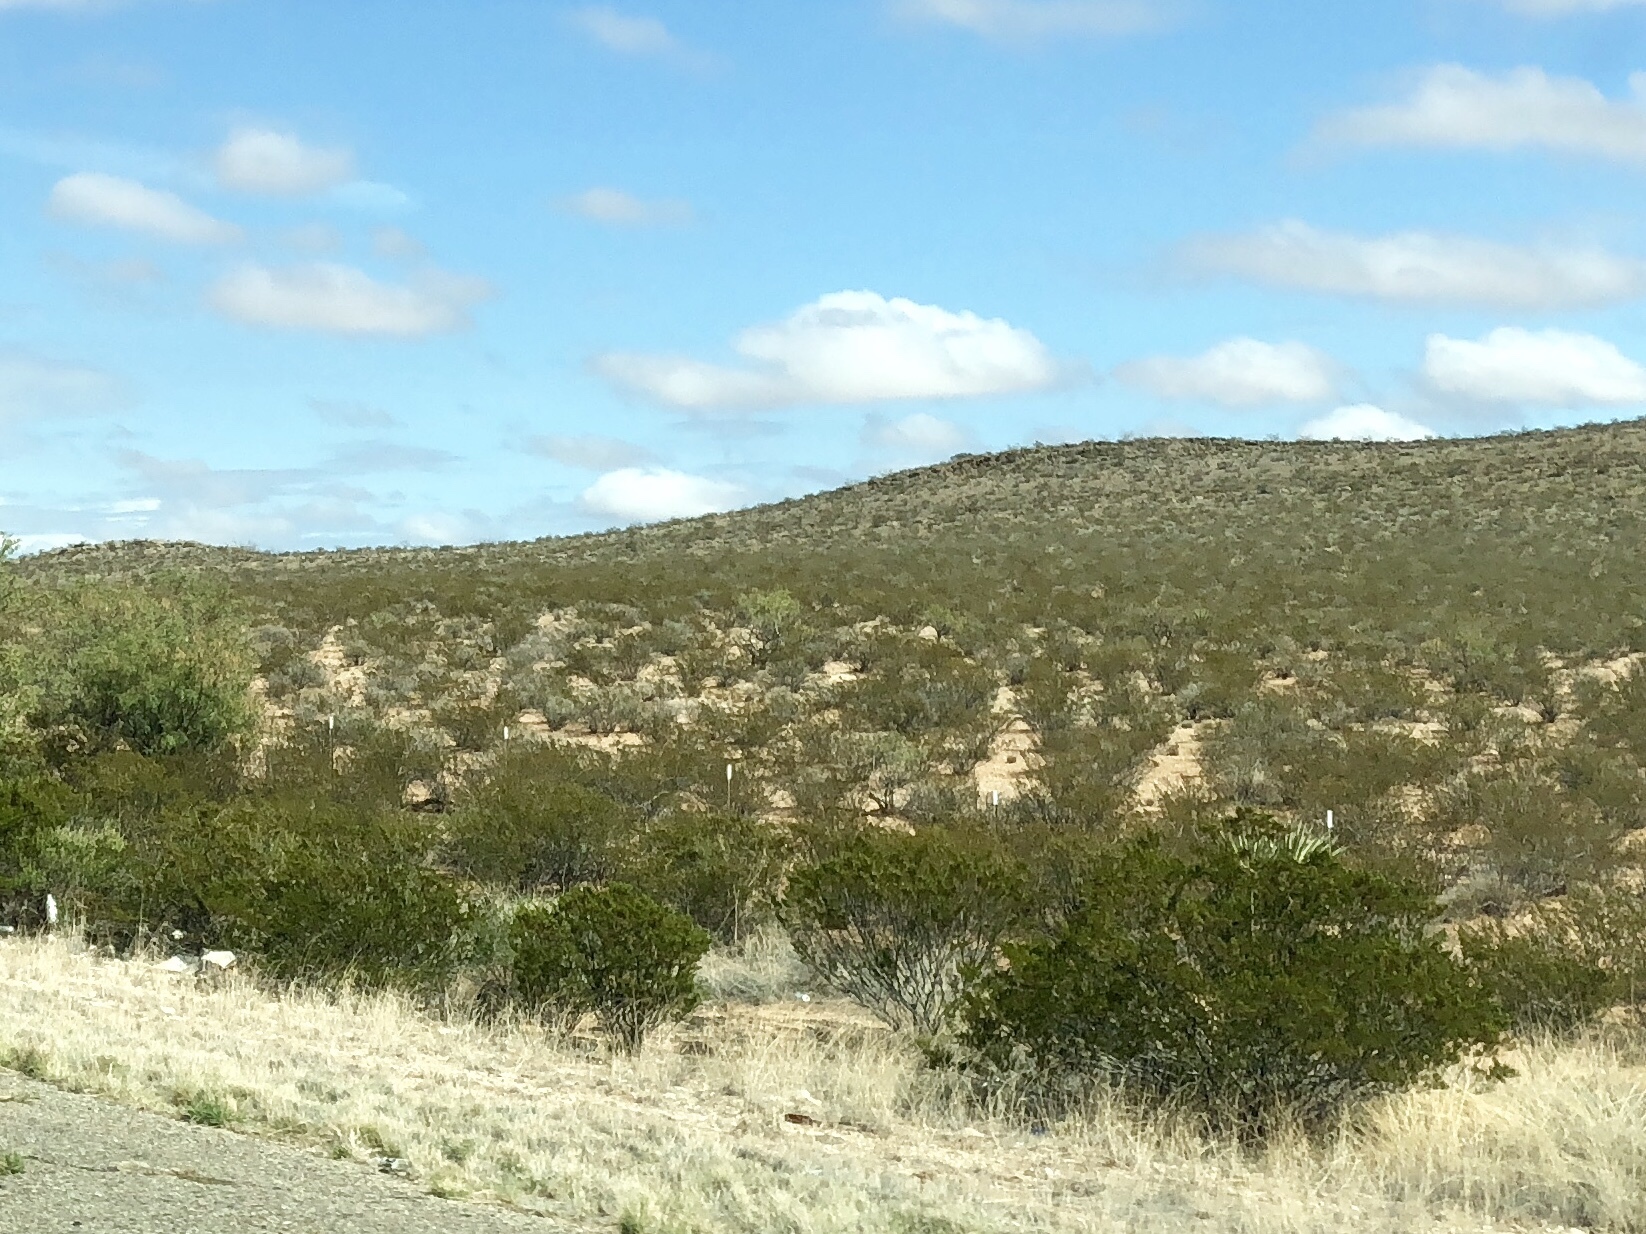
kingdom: Plantae
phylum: Tracheophyta
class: Magnoliopsida
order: Zygophyllales
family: Zygophyllaceae
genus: Larrea
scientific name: Larrea tridentata
